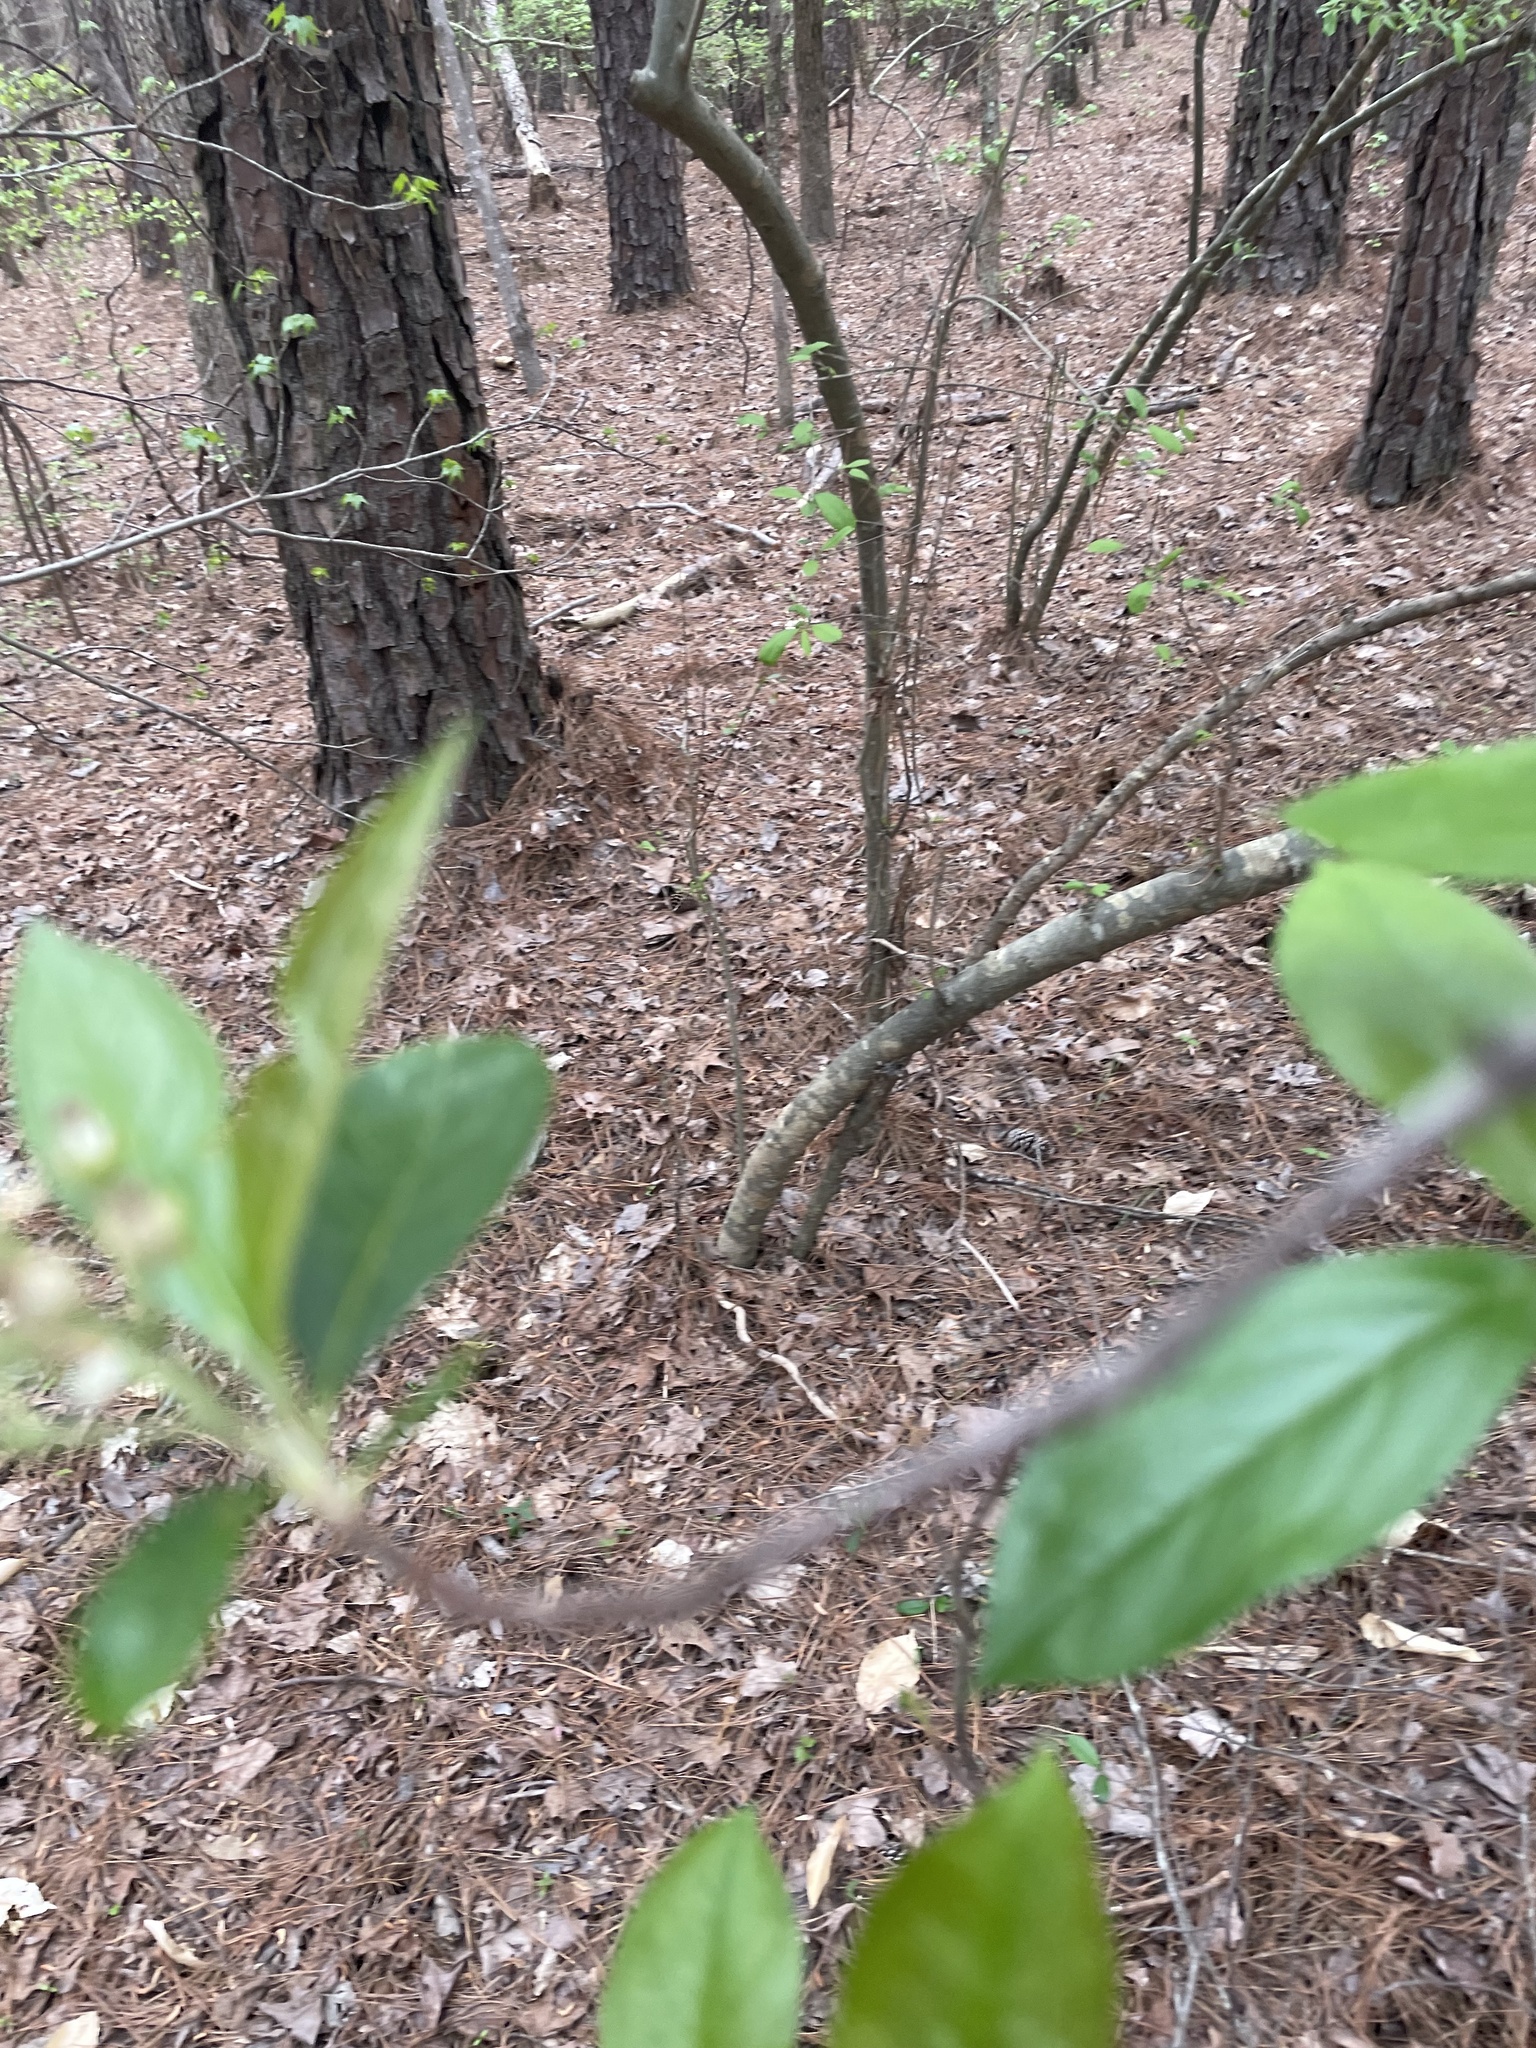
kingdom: Plantae
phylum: Tracheophyta
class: Magnoliopsida
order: Rosales
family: Rosaceae
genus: Aronia
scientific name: Aronia arbutifolia
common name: Red chokeberry
